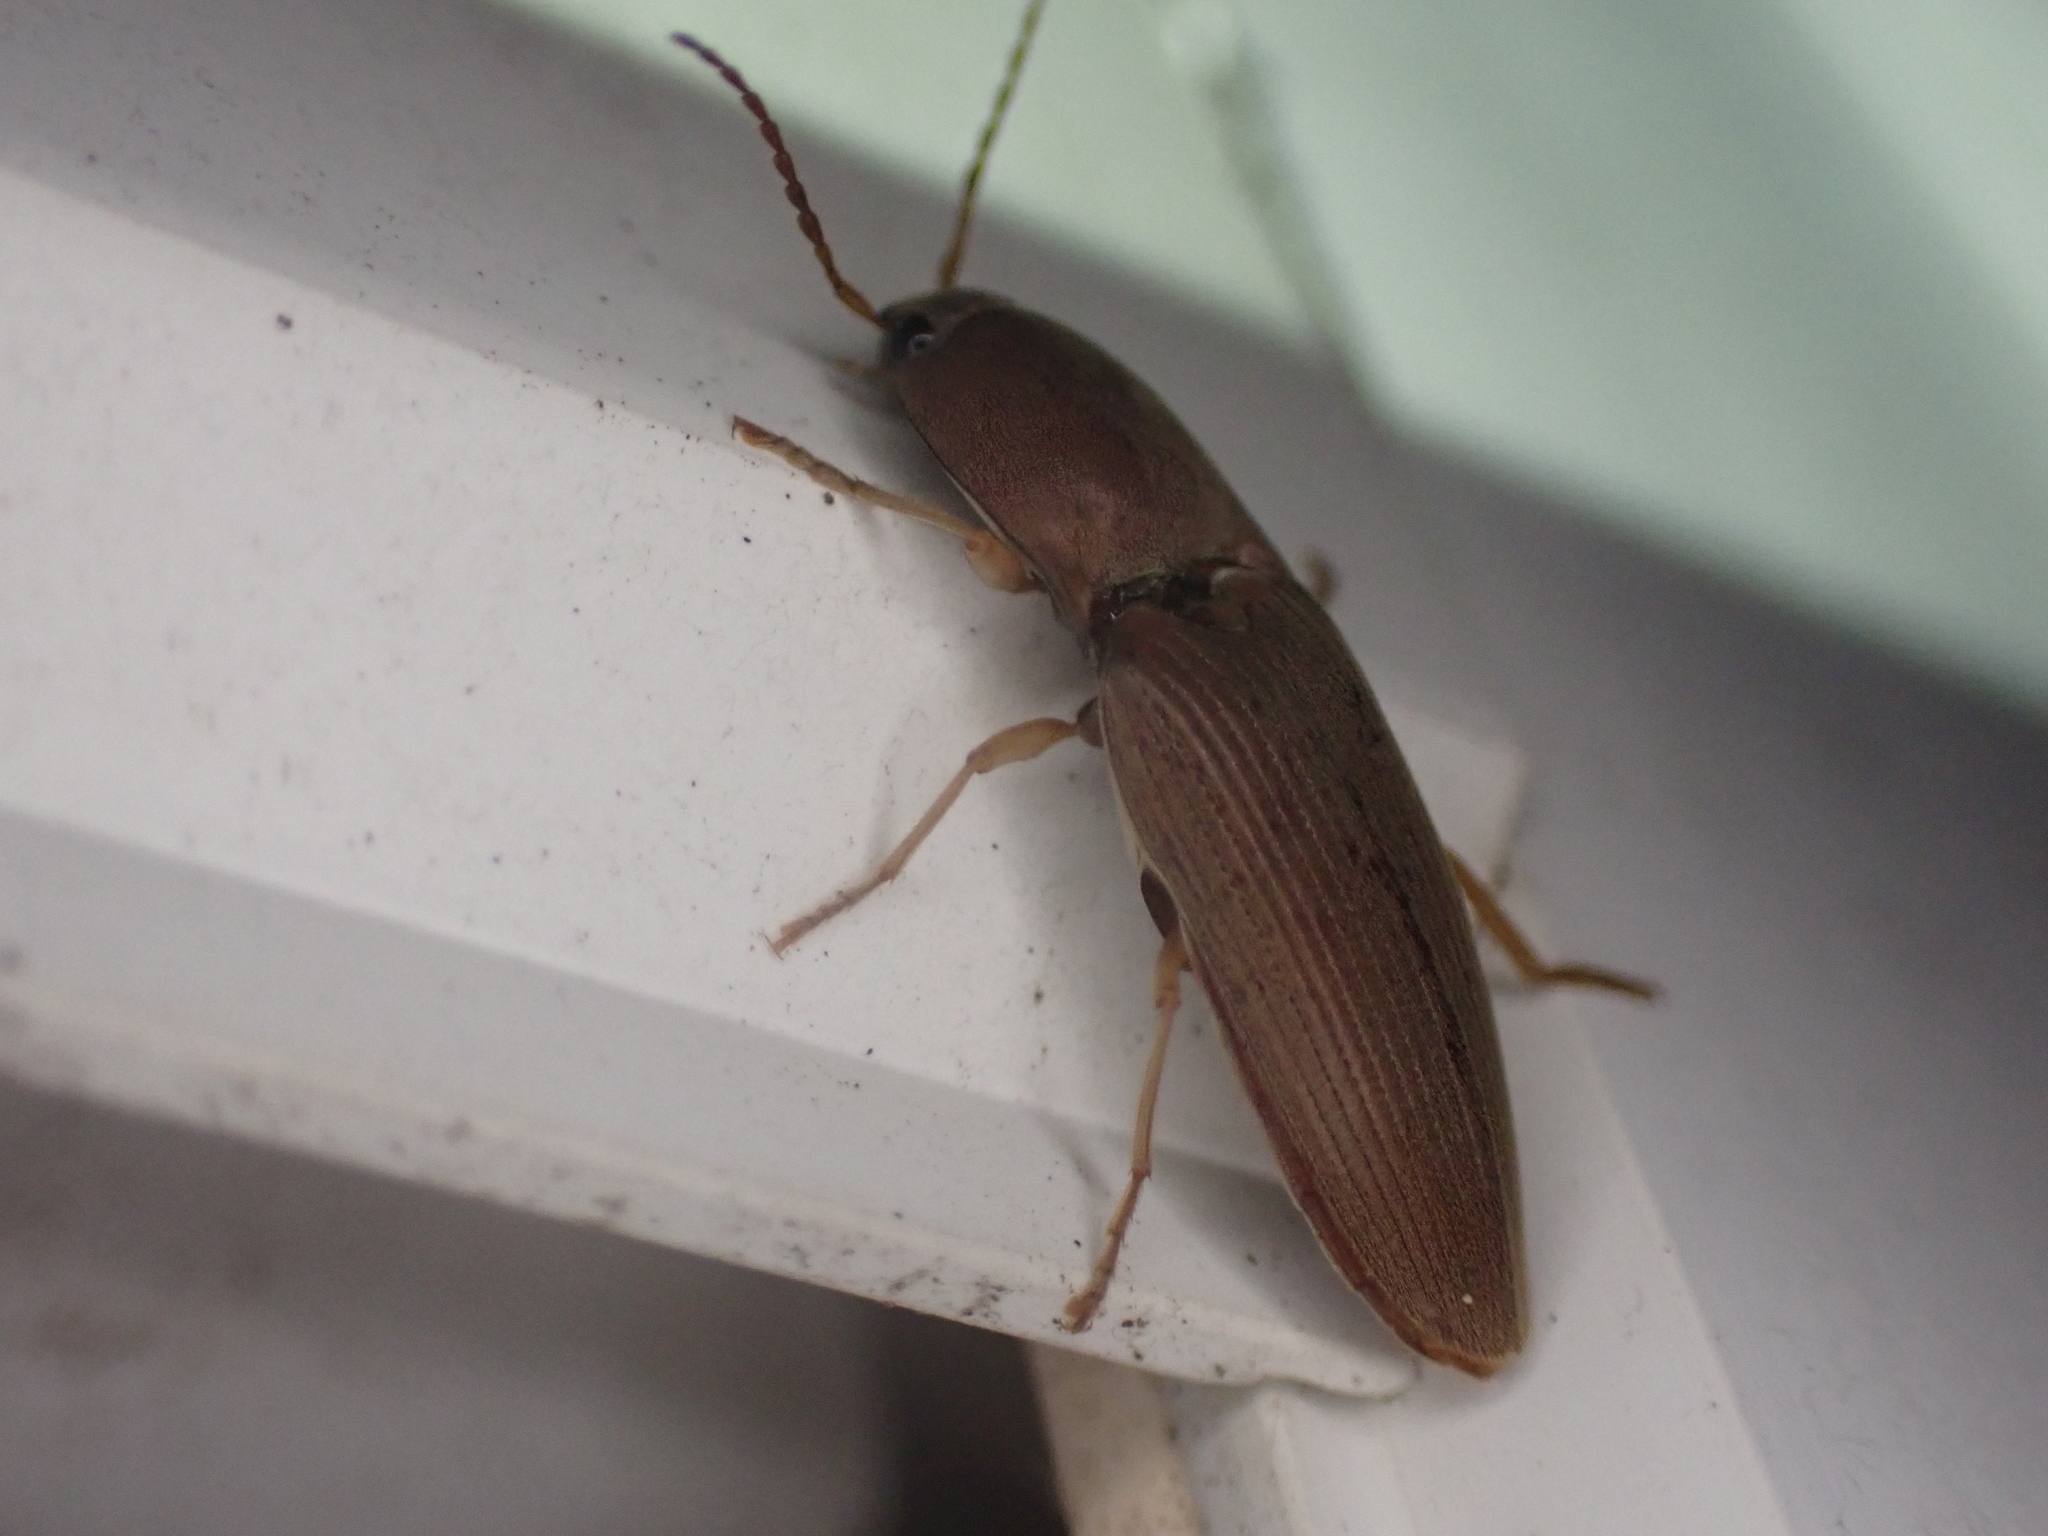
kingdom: Animalia
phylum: Arthropoda
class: Insecta
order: Coleoptera
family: Elateridae
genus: Monocrepidius
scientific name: Monocrepidius lividus
